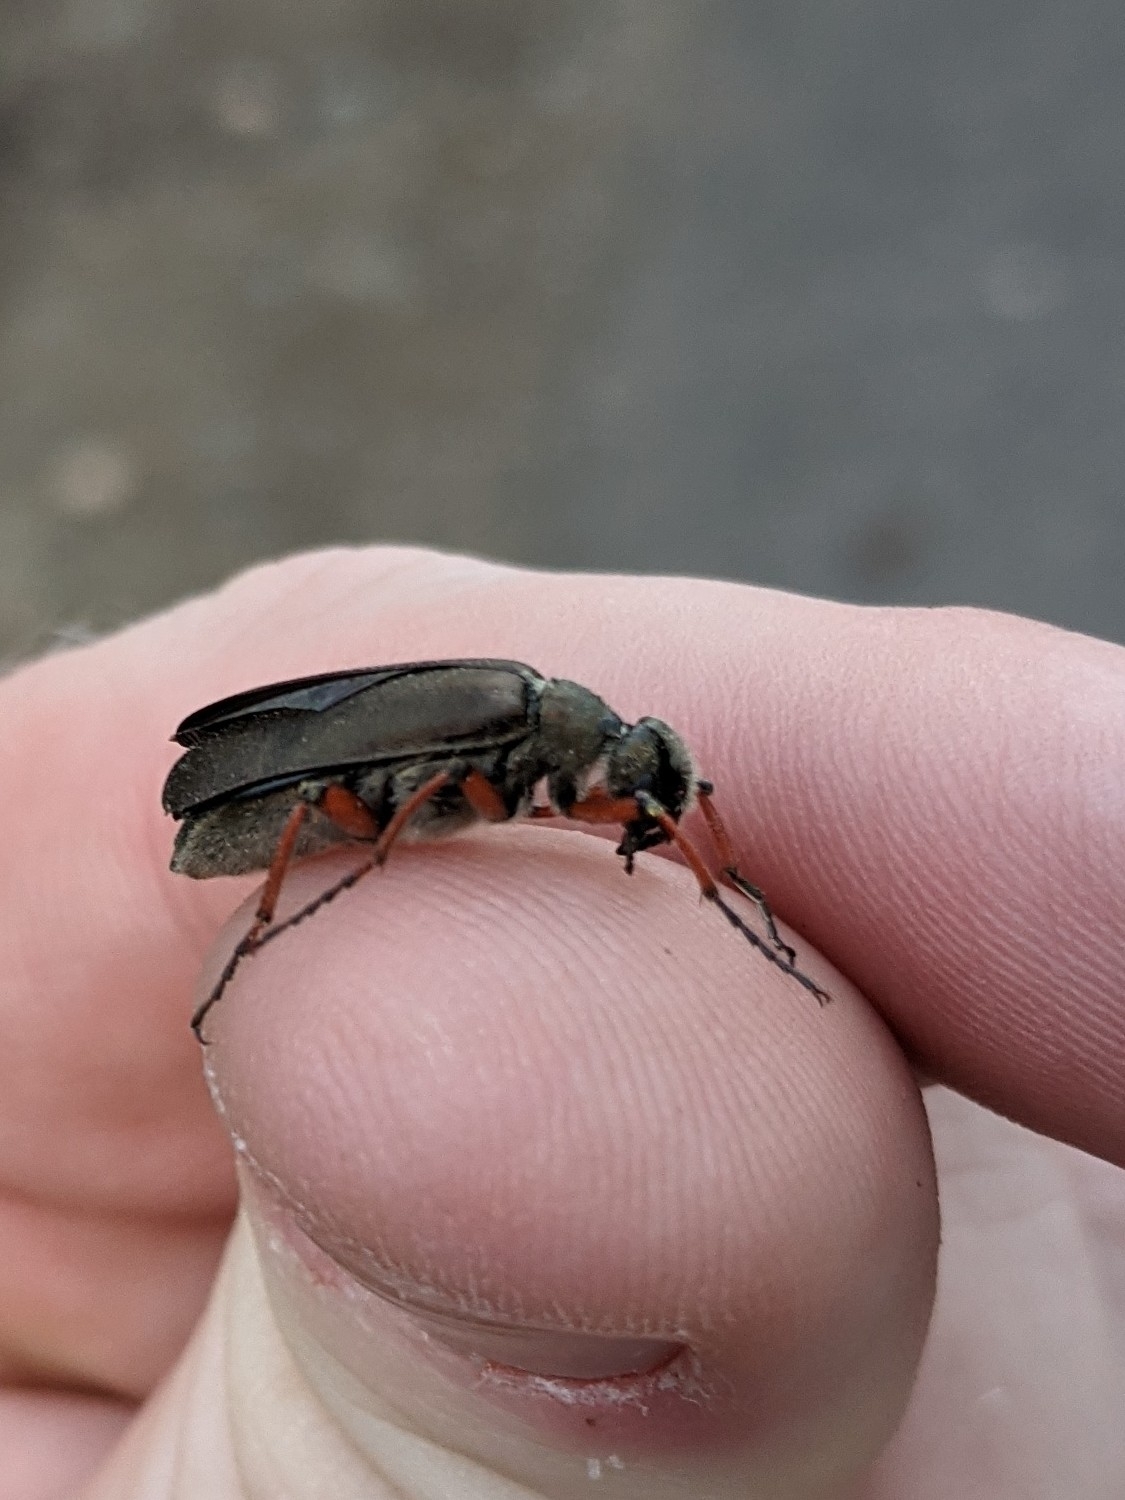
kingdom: Animalia
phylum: Arthropoda
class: Insecta
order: Coleoptera
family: Meloidae
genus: Lytta
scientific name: Lytta aenea
